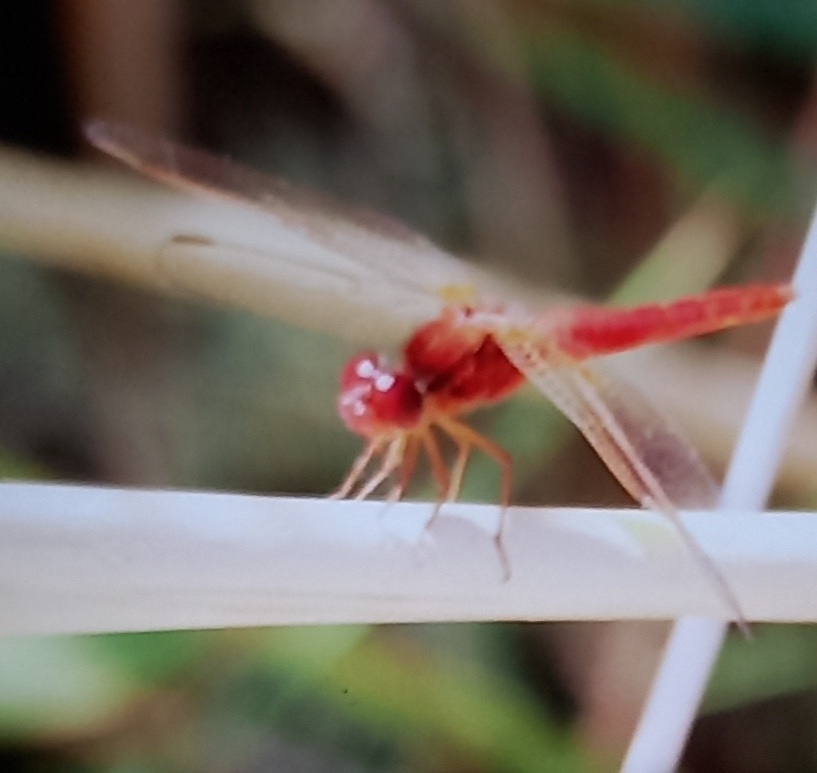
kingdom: Animalia
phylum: Arthropoda
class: Insecta
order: Odonata
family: Libellulidae
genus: Crocothemis
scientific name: Crocothemis erythraea
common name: Scarlet dragonfly
